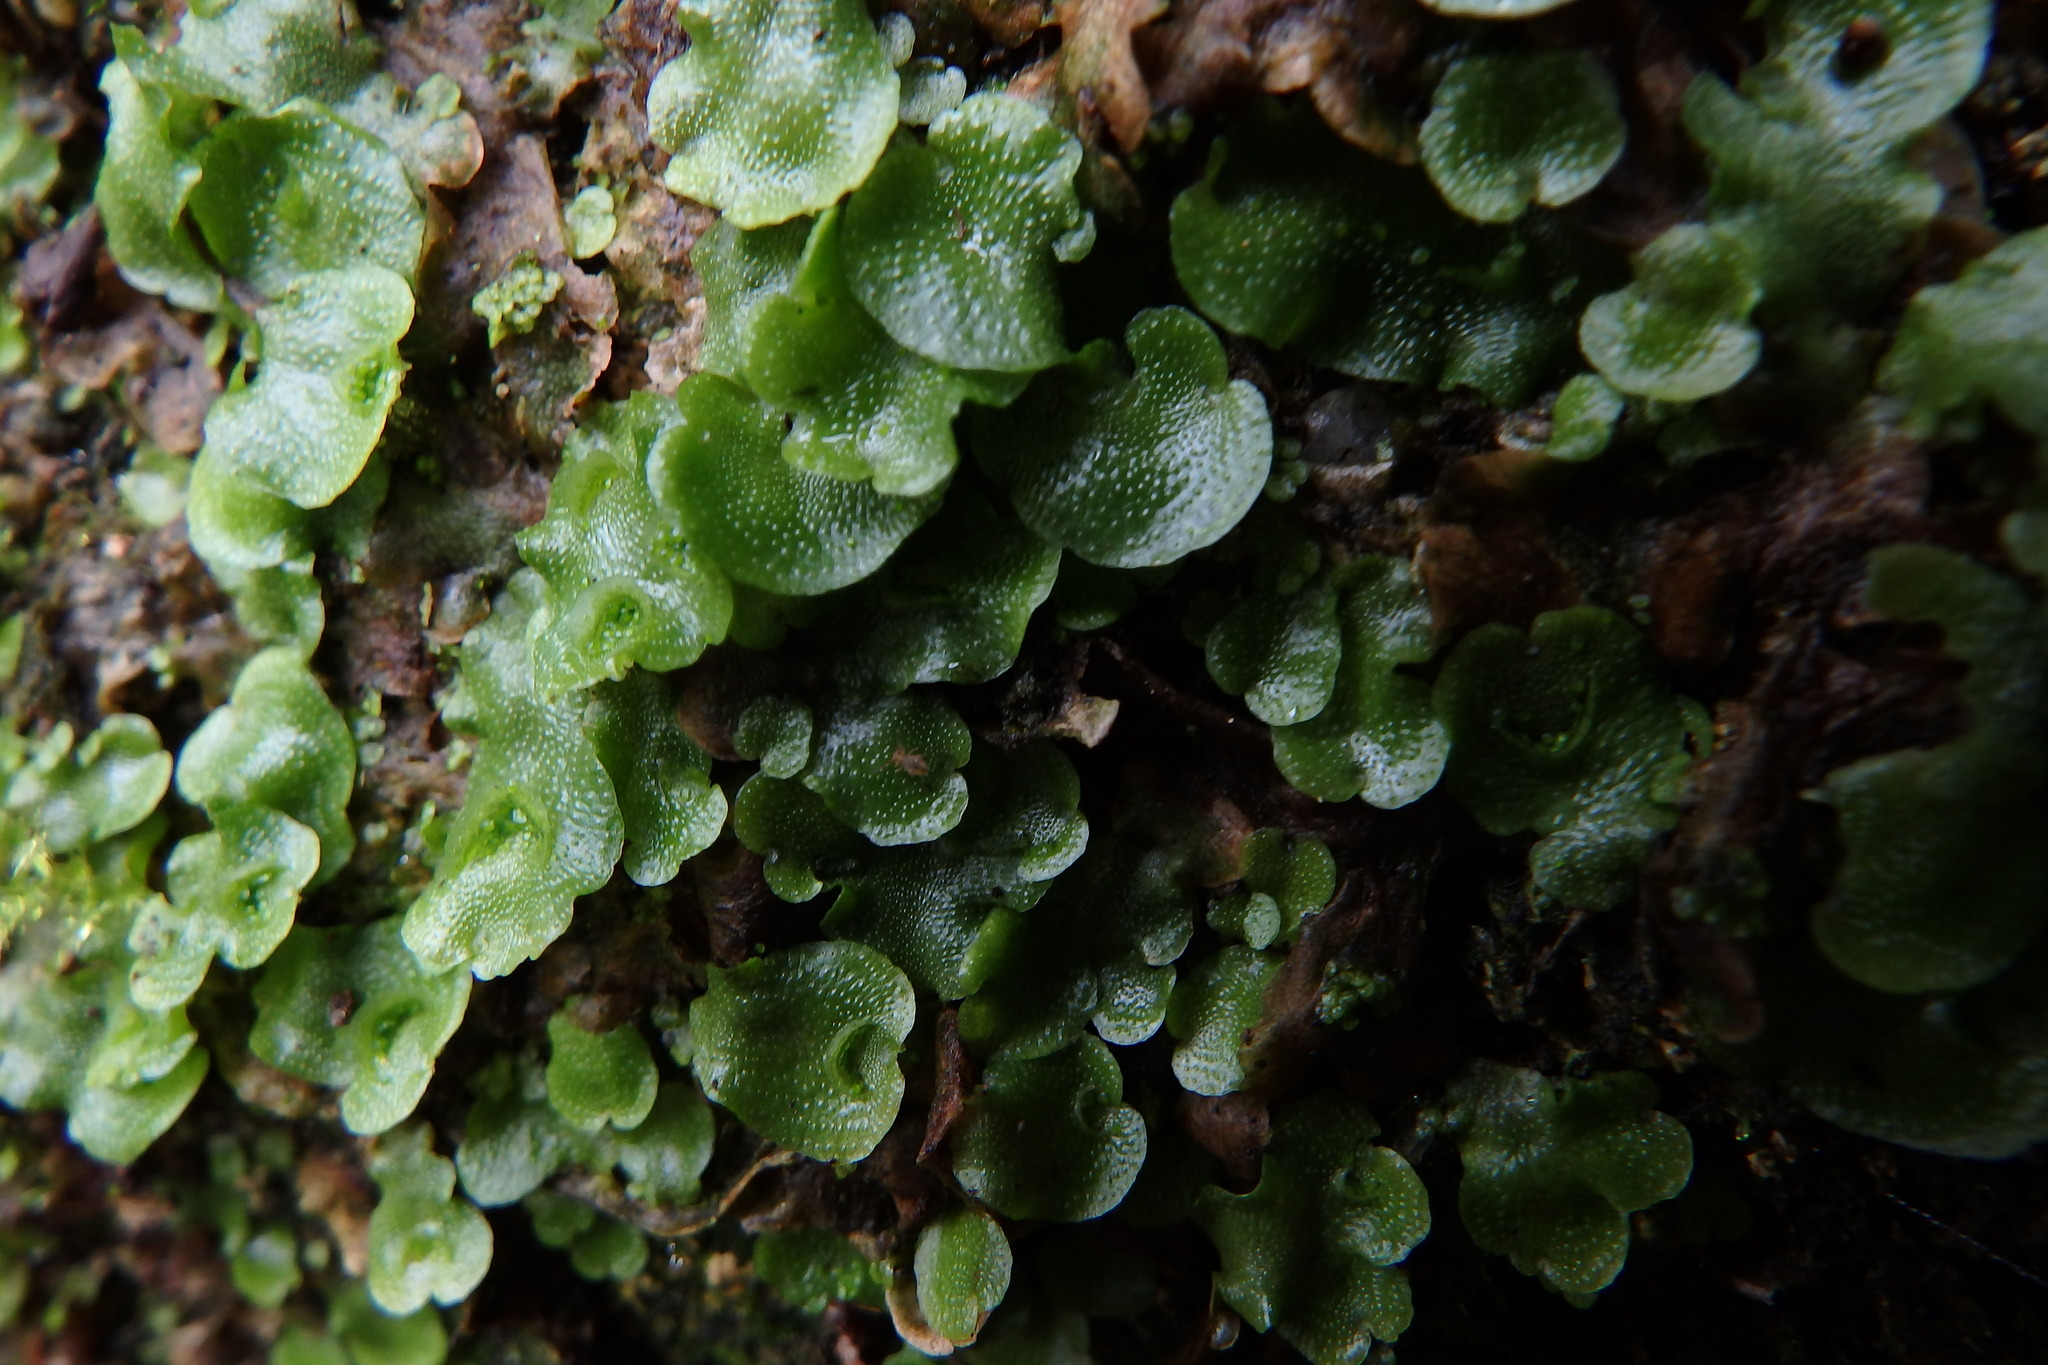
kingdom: Plantae
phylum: Marchantiophyta
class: Marchantiopsida
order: Lunulariales
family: Lunulariaceae
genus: Lunularia
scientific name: Lunularia cruciata
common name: Crescent-cup liverwort
